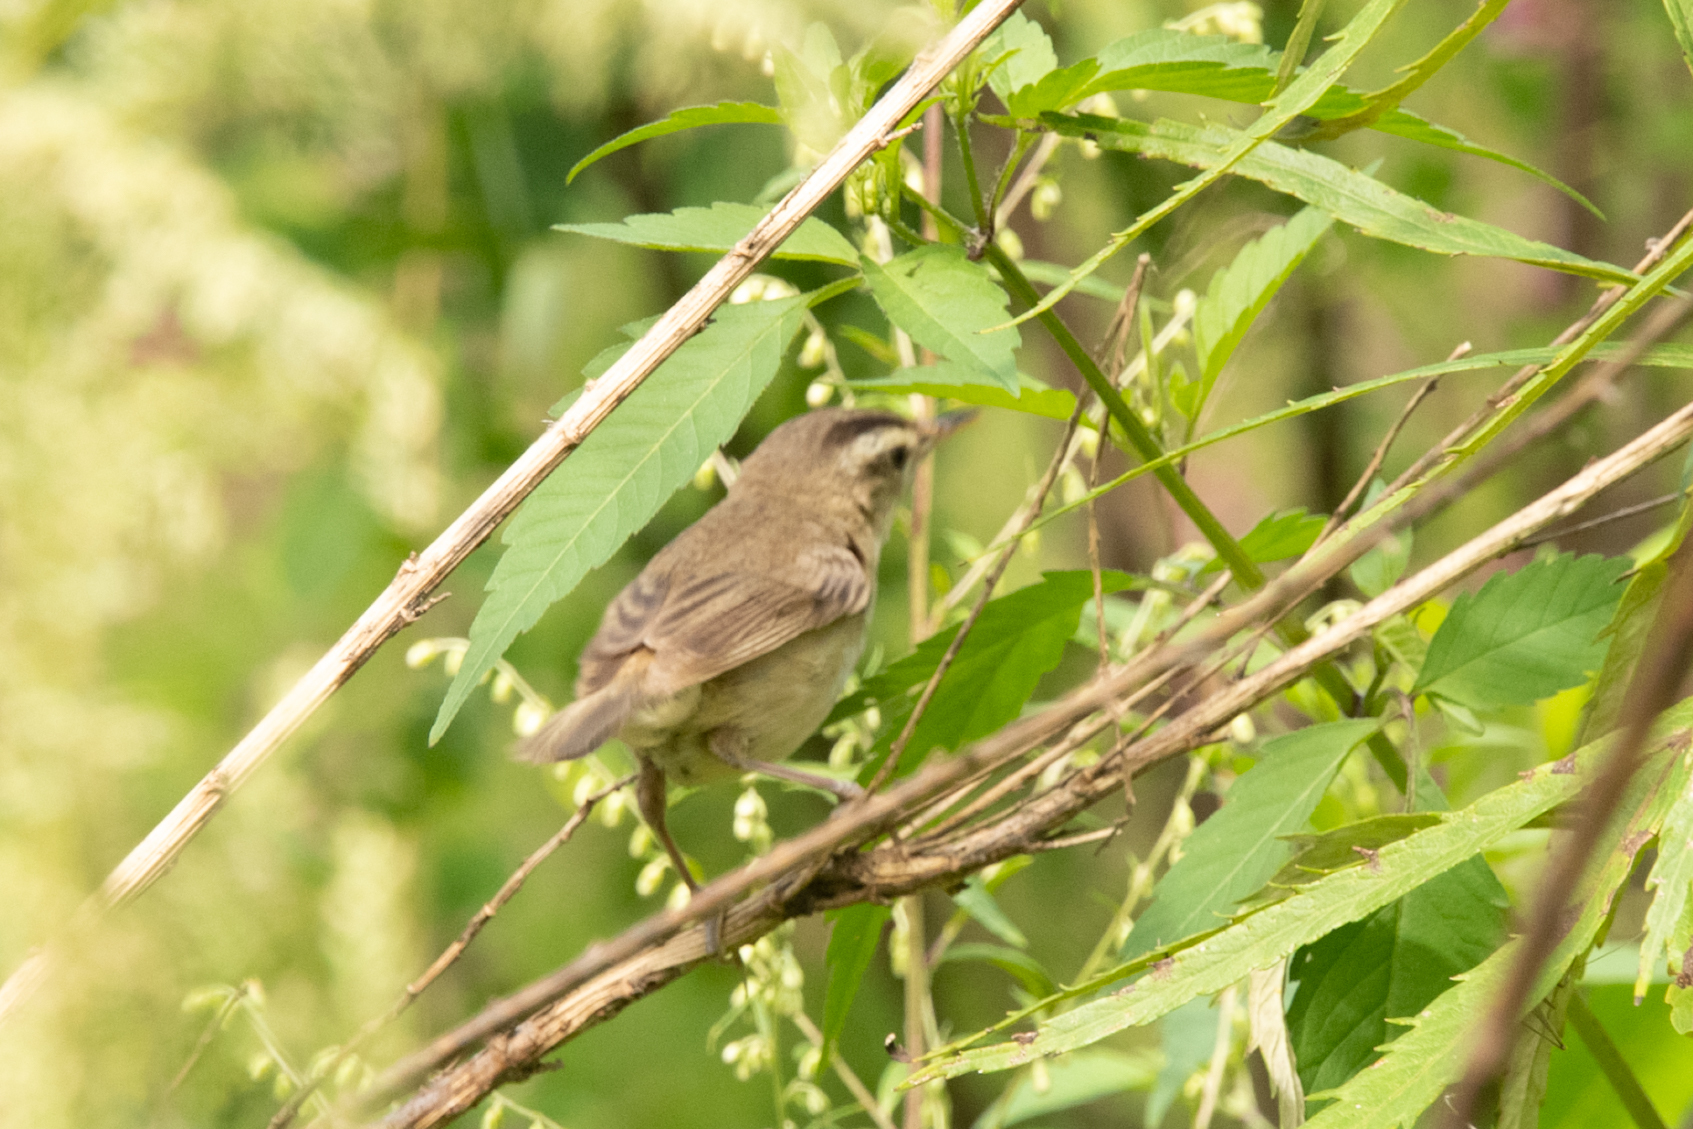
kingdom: Animalia
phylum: Chordata
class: Aves
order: Passeriformes
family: Acrocephalidae
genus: Acrocephalus
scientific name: Acrocephalus bistrigiceps
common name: Black-browed reed warbler
